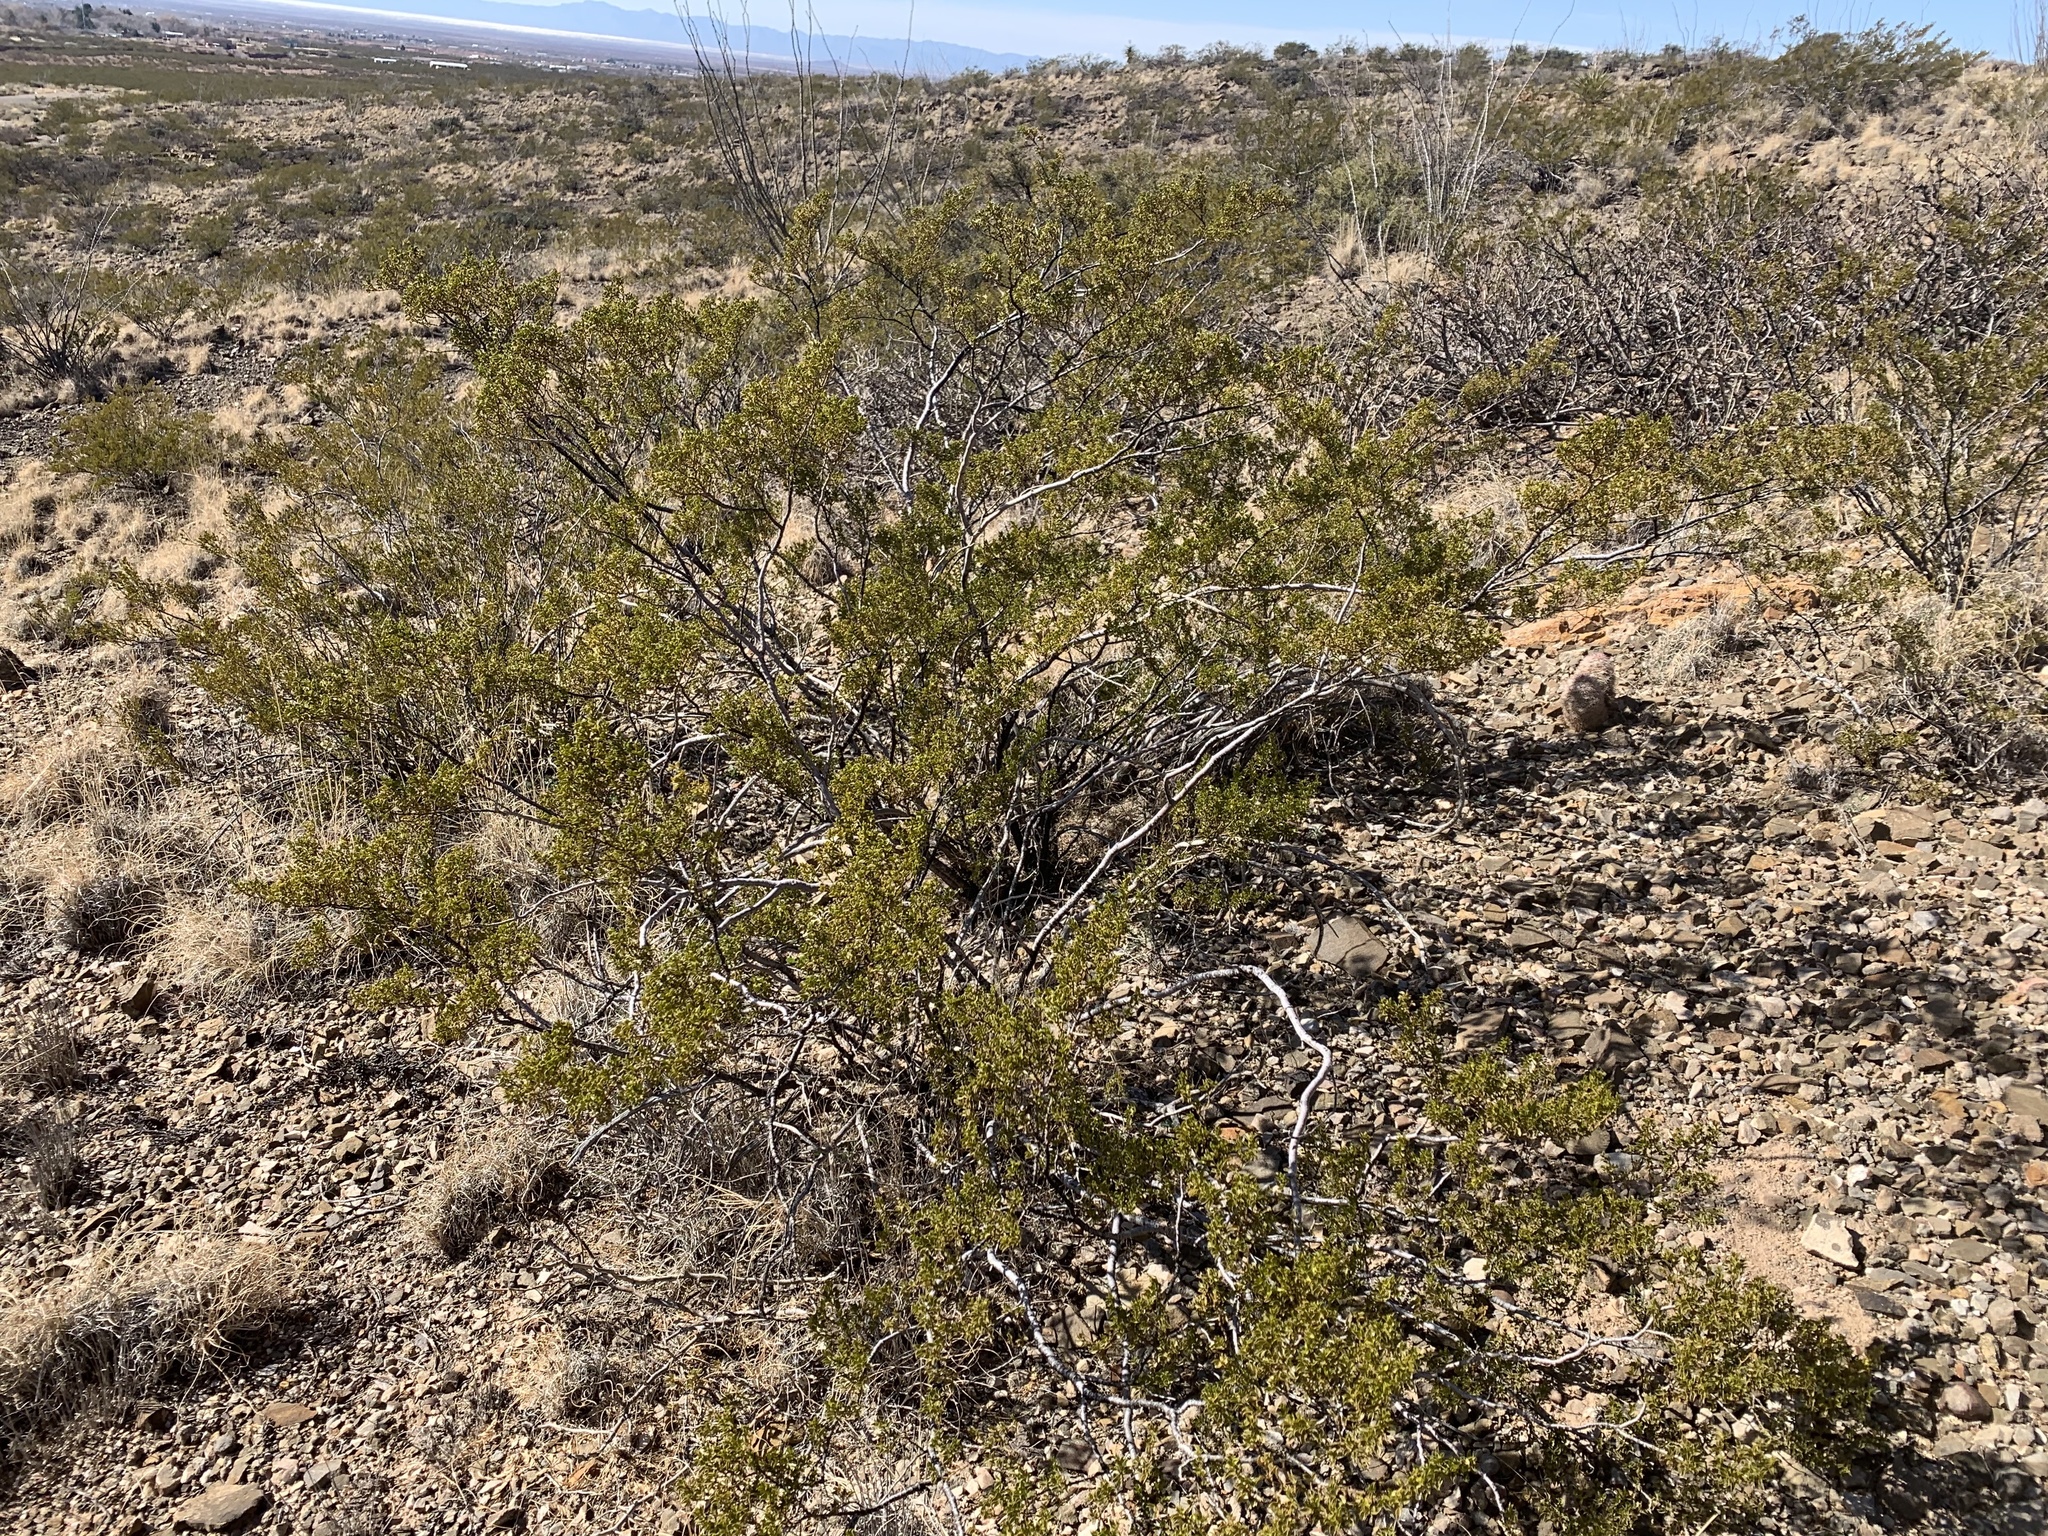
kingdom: Plantae
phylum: Tracheophyta
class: Magnoliopsida
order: Zygophyllales
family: Zygophyllaceae
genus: Larrea
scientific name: Larrea tridentata
